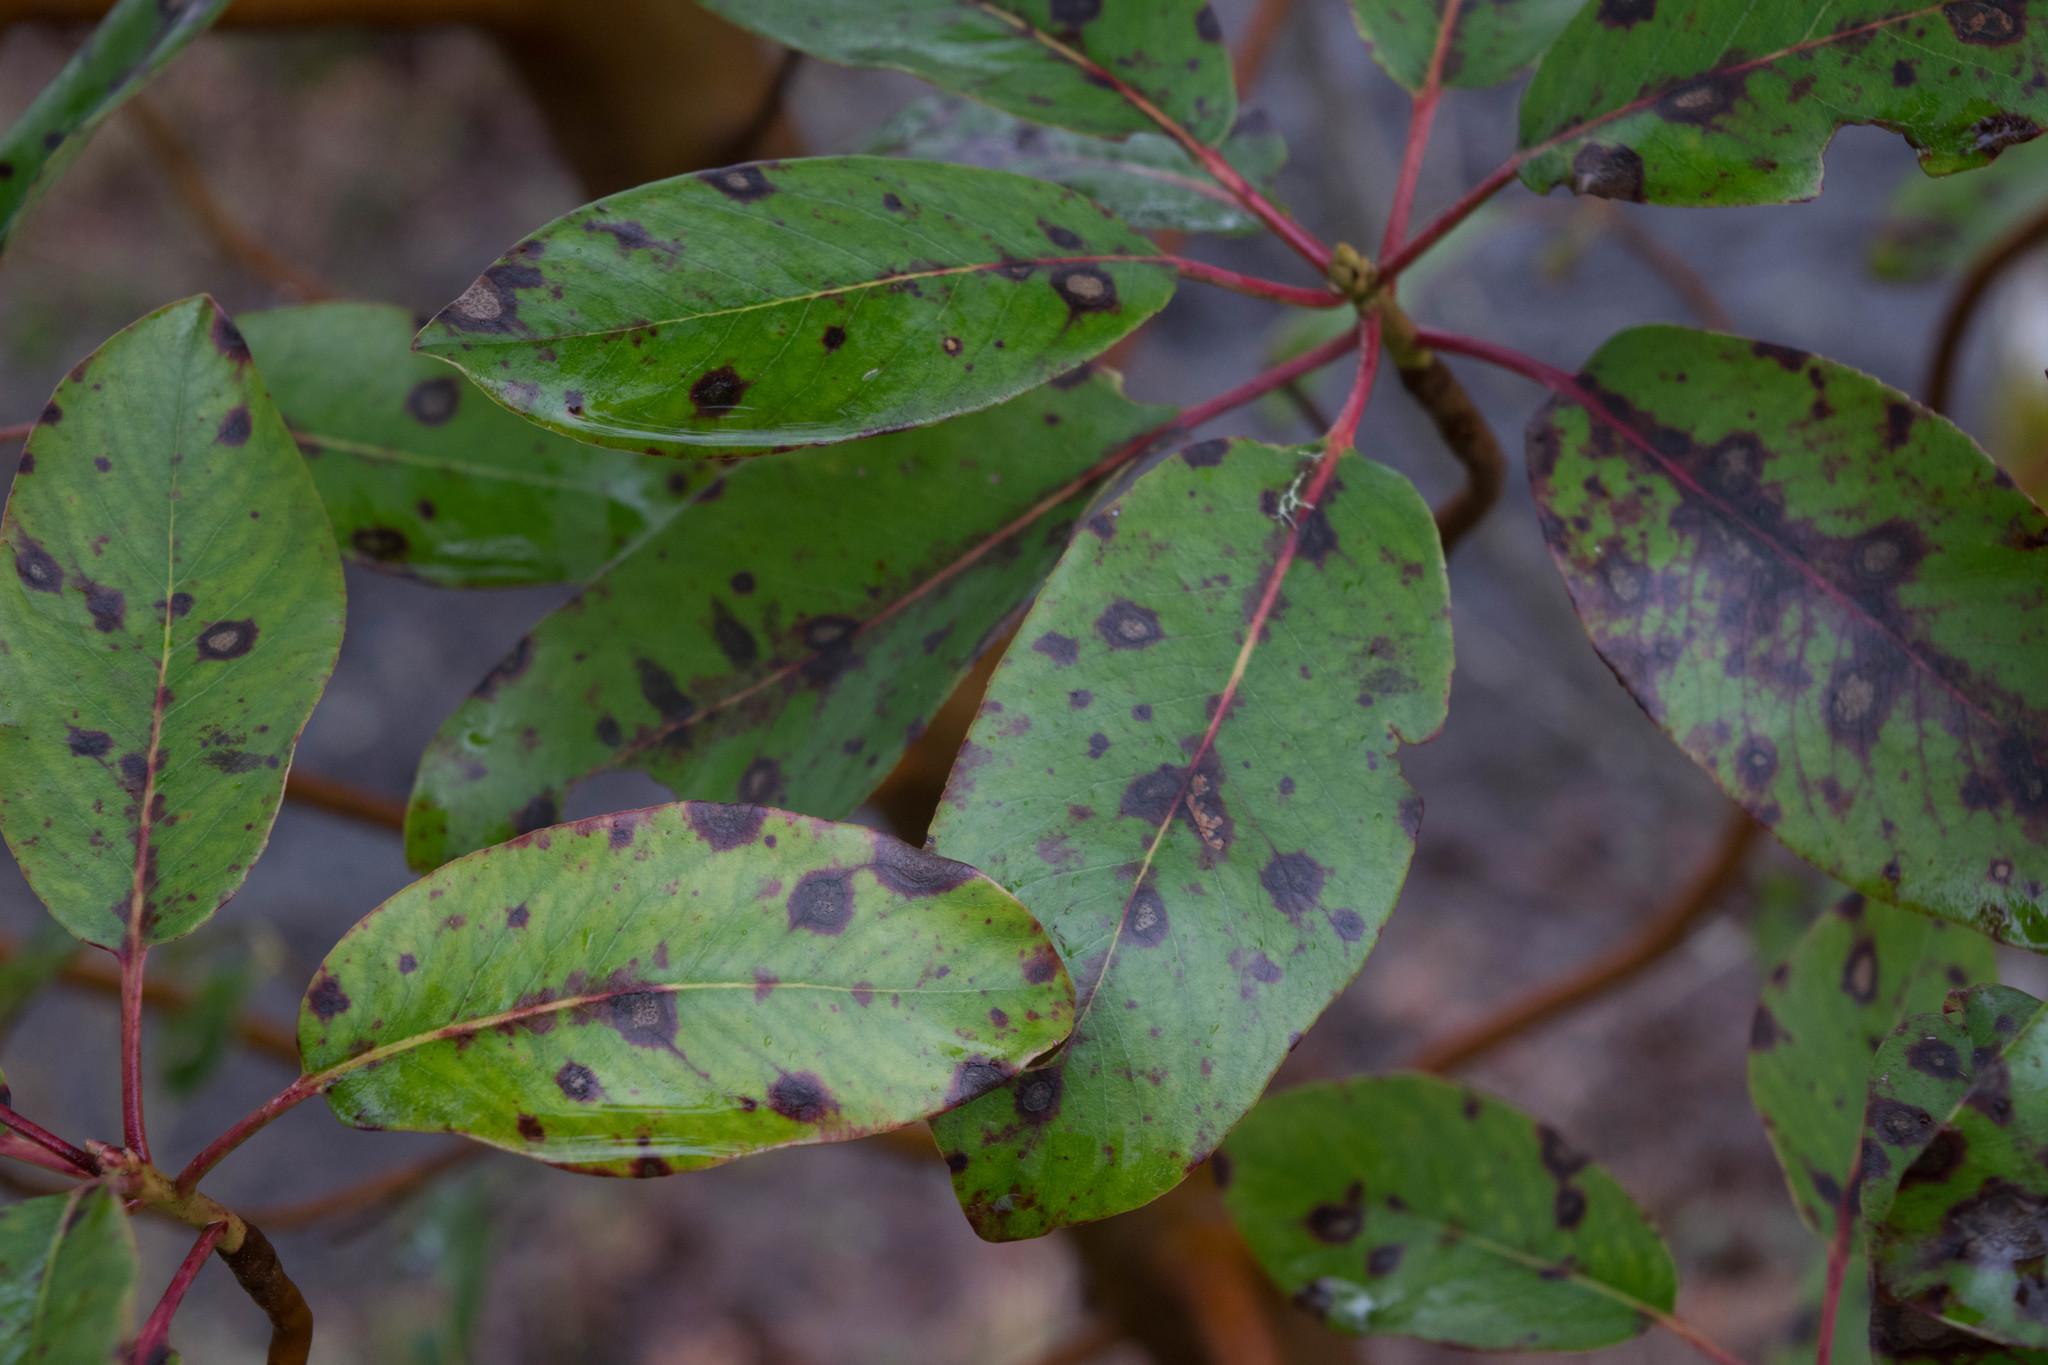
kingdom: Plantae
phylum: Tracheophyta
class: Magnoliopsida
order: Ericales
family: Ericaceae
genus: Arbutus
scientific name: Arbutus menziesii
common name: Pacific madrone
